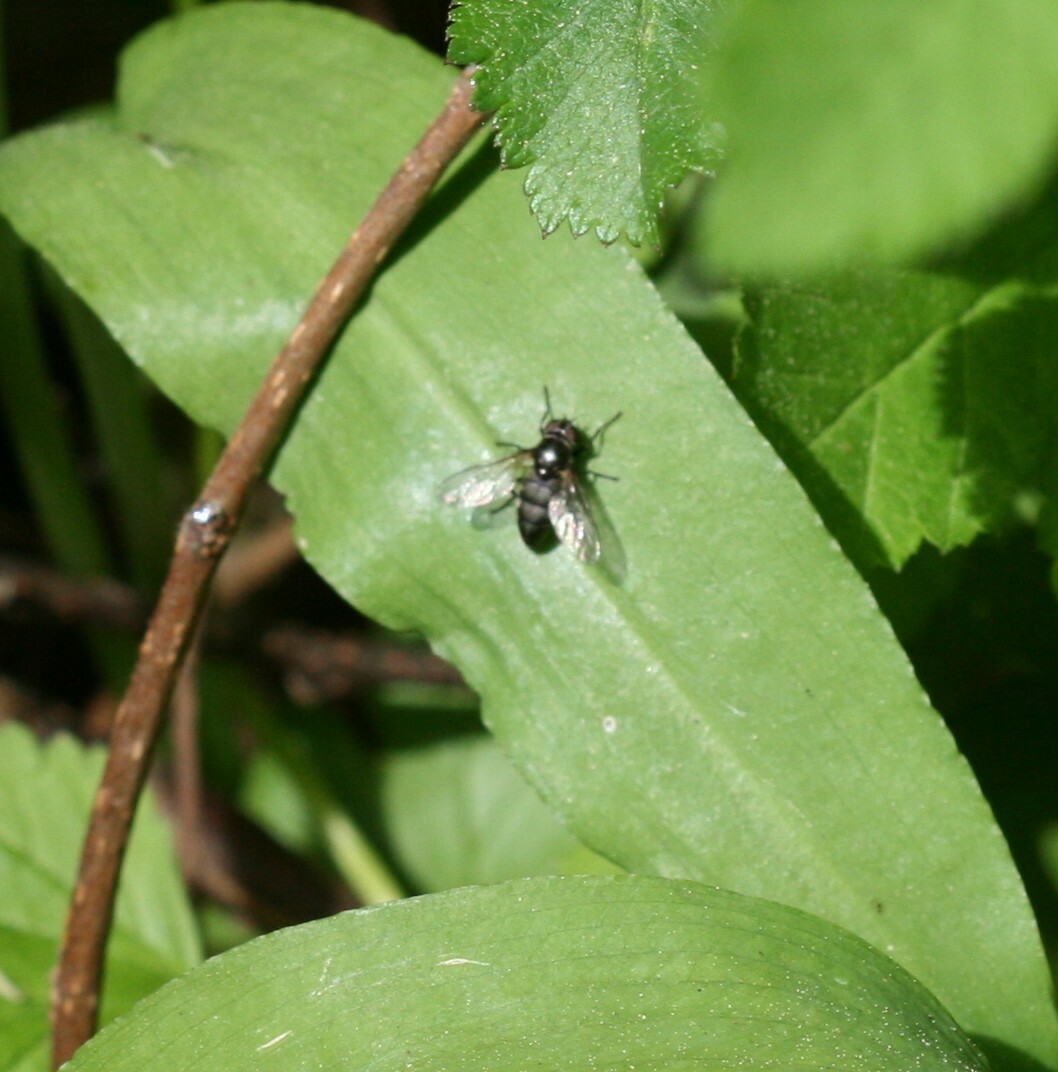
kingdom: Animalia
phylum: Arthropoda
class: Insecta
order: Diptera
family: Syrphidae
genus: Portevinia
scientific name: Portevinia maculata
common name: Ramson's hoverfly
